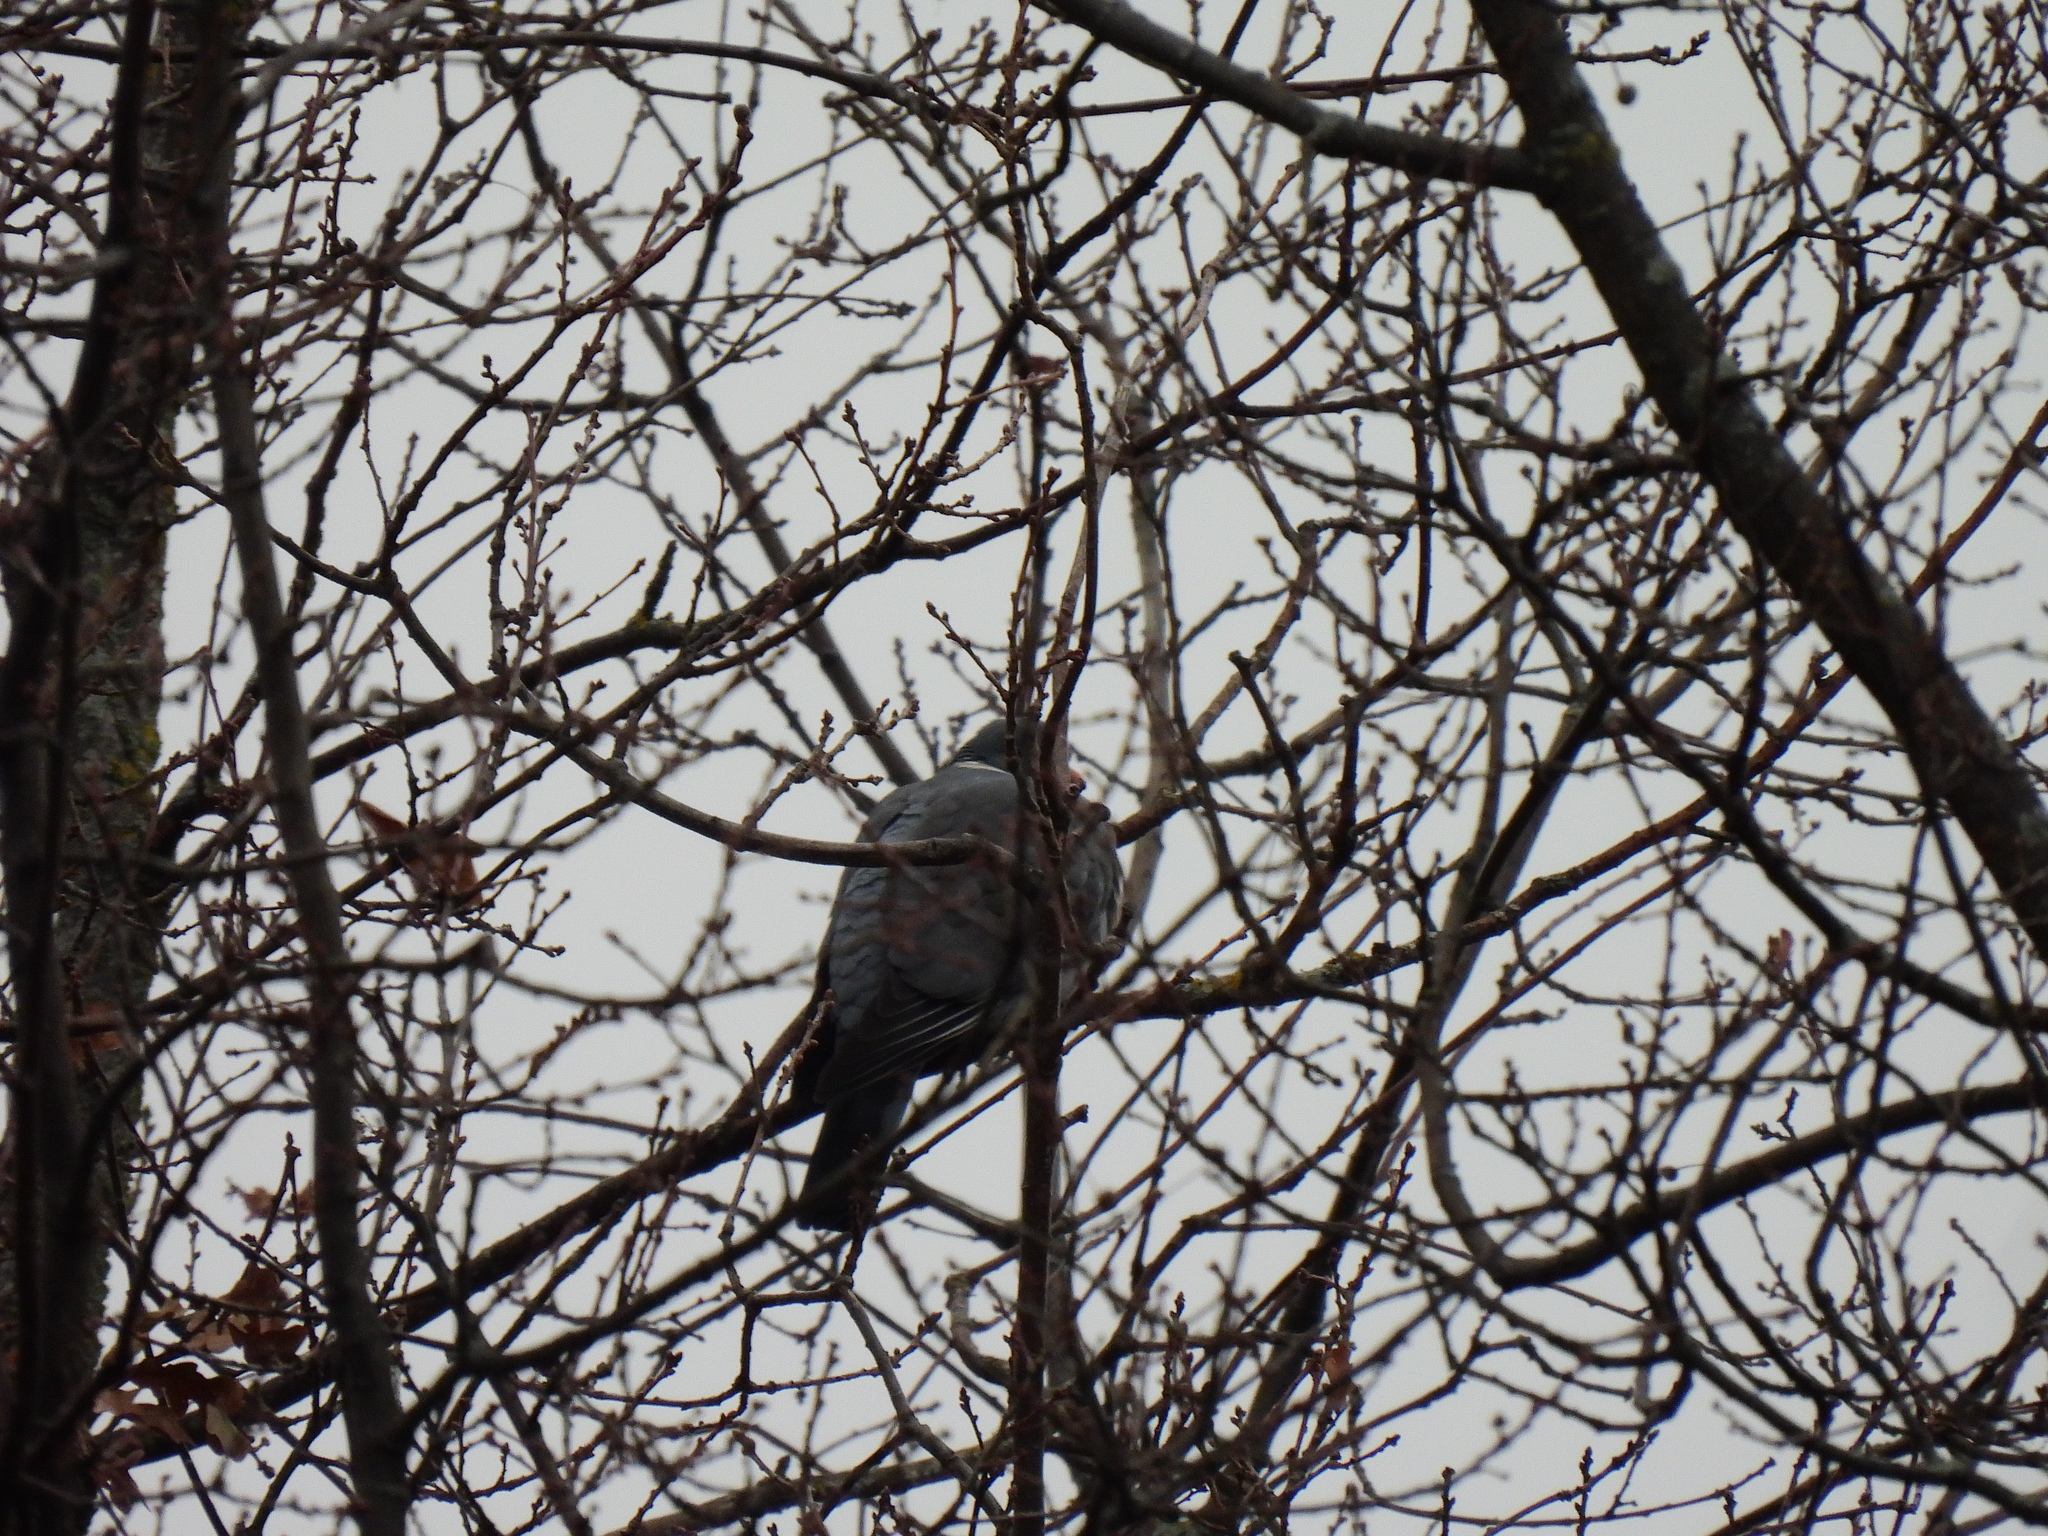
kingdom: Animalia
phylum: Chordata
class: Aves
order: Columbiformes
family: Columbidae
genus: Columba
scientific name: Columba palumbus
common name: Common wood pigeon
